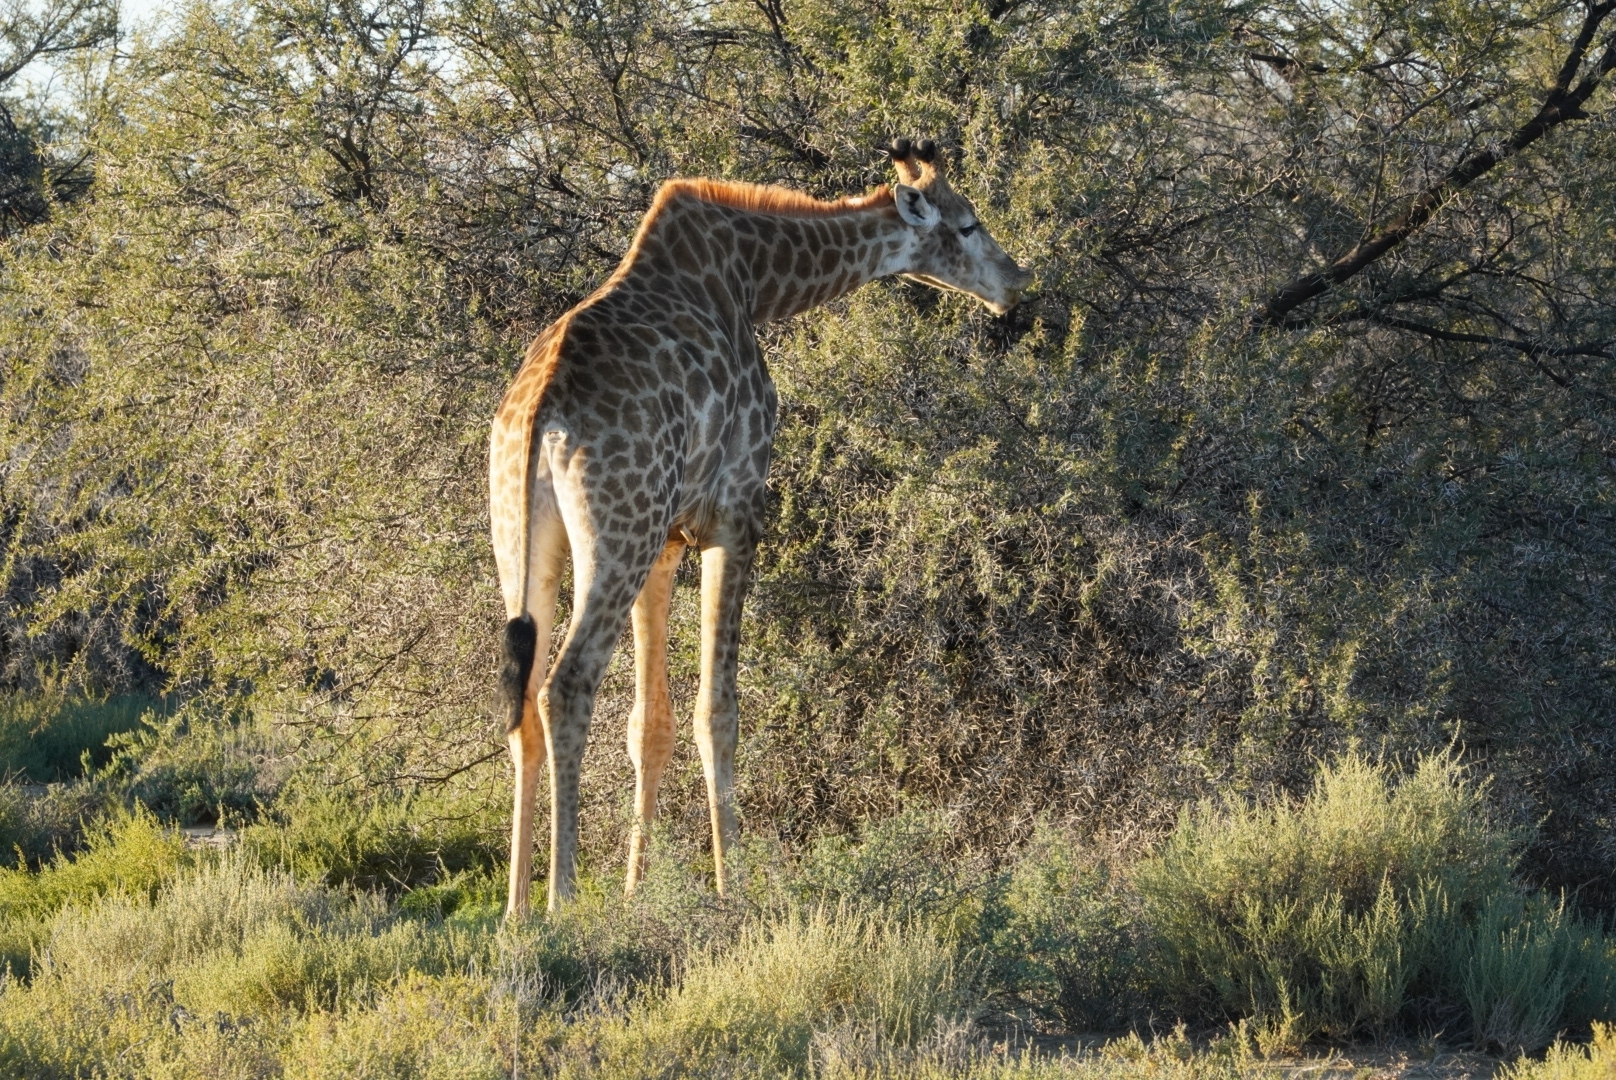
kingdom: Animalia
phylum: Chordata
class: Mammalia
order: Artiodactyla
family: Giraffidae
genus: Giraffa
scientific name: Giraffa giraffa
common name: Southern giraffe
